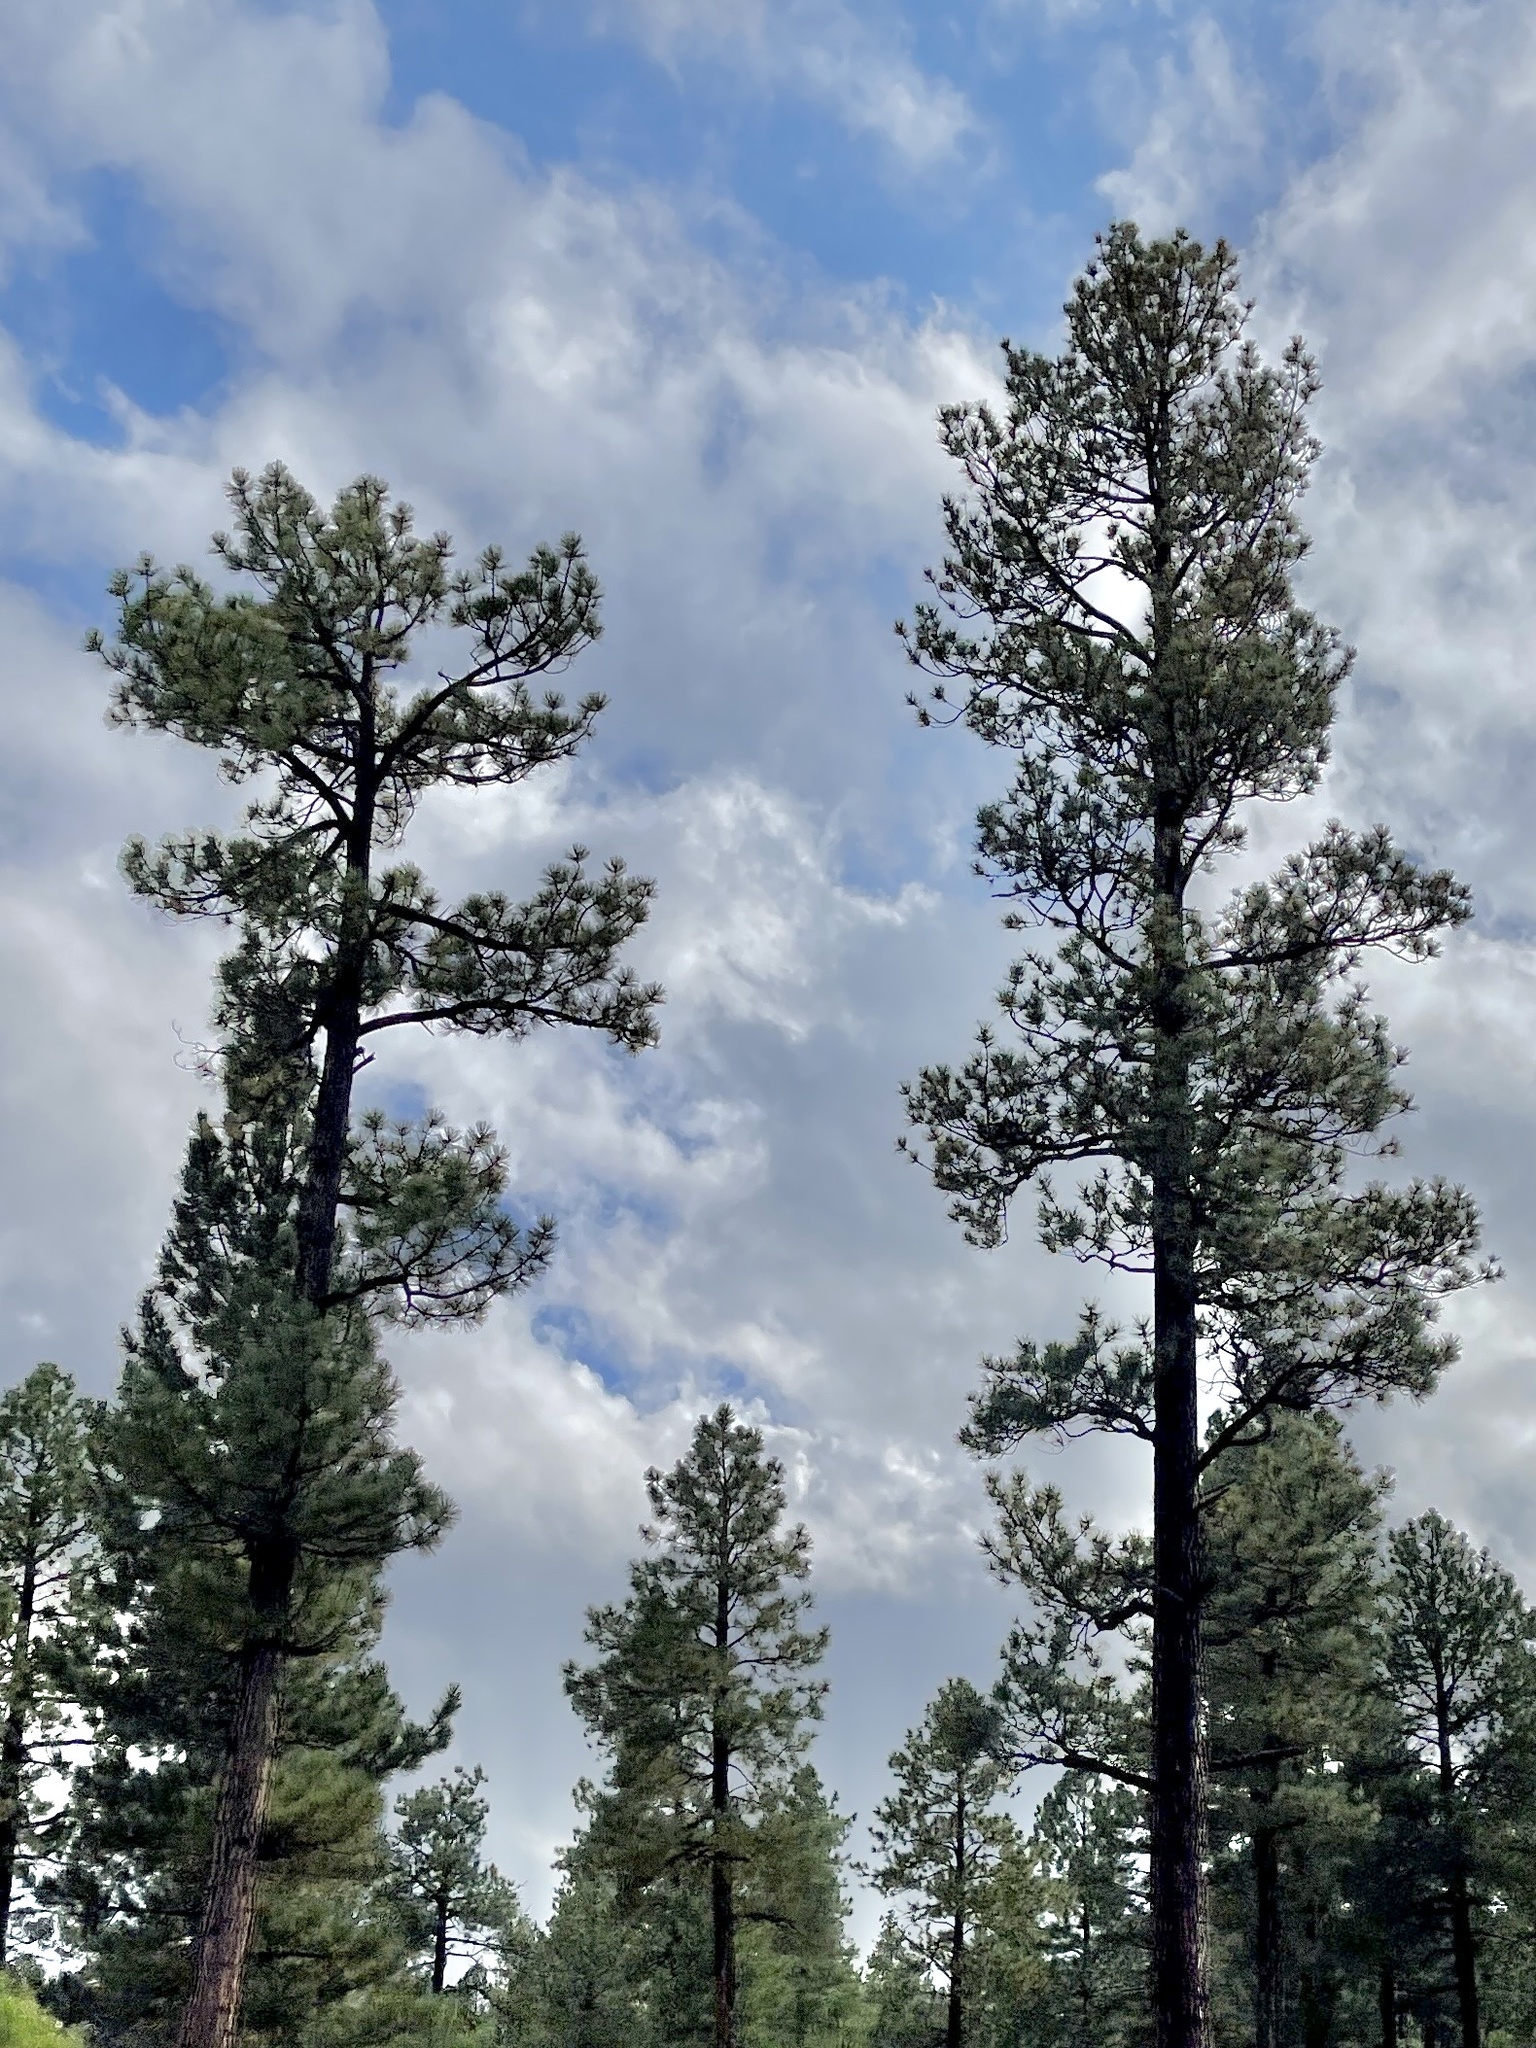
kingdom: Plantae
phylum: Tracheophyta
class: Pinopsida
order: Pinales
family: Pinaceae
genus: Pinus
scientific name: Pinus ponderosa
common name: Western yellow-pine
